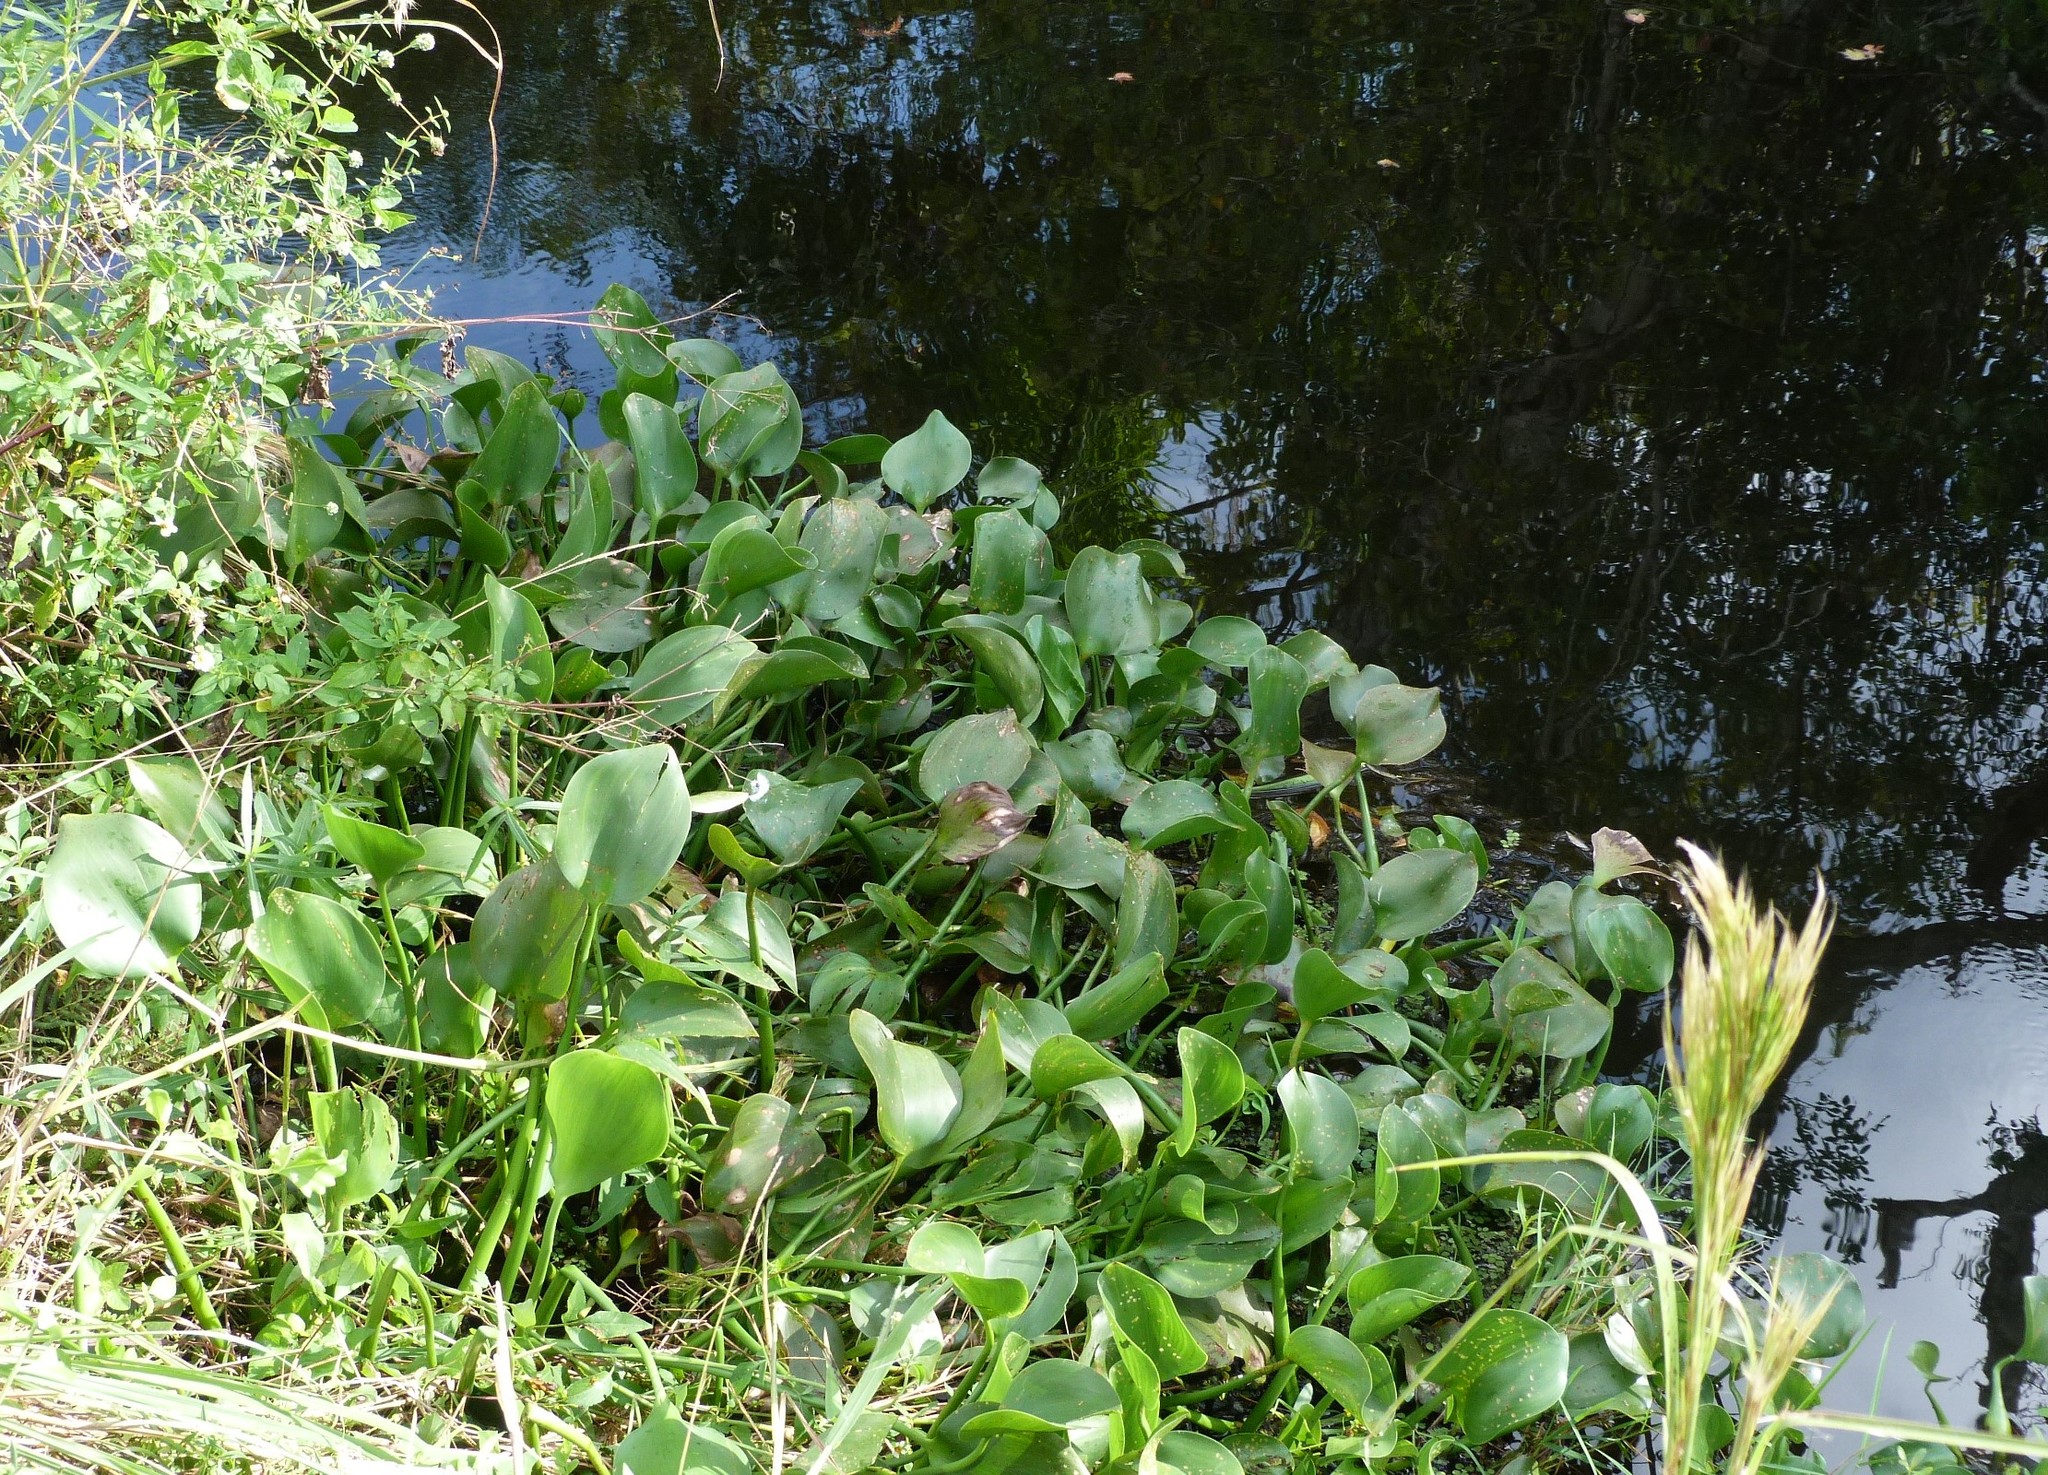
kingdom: Plantae
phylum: Tracheophyta
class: Liliopsida
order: Commelinales
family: Pontederiaceae
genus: Pontederia
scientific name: Pontederia crassipes
